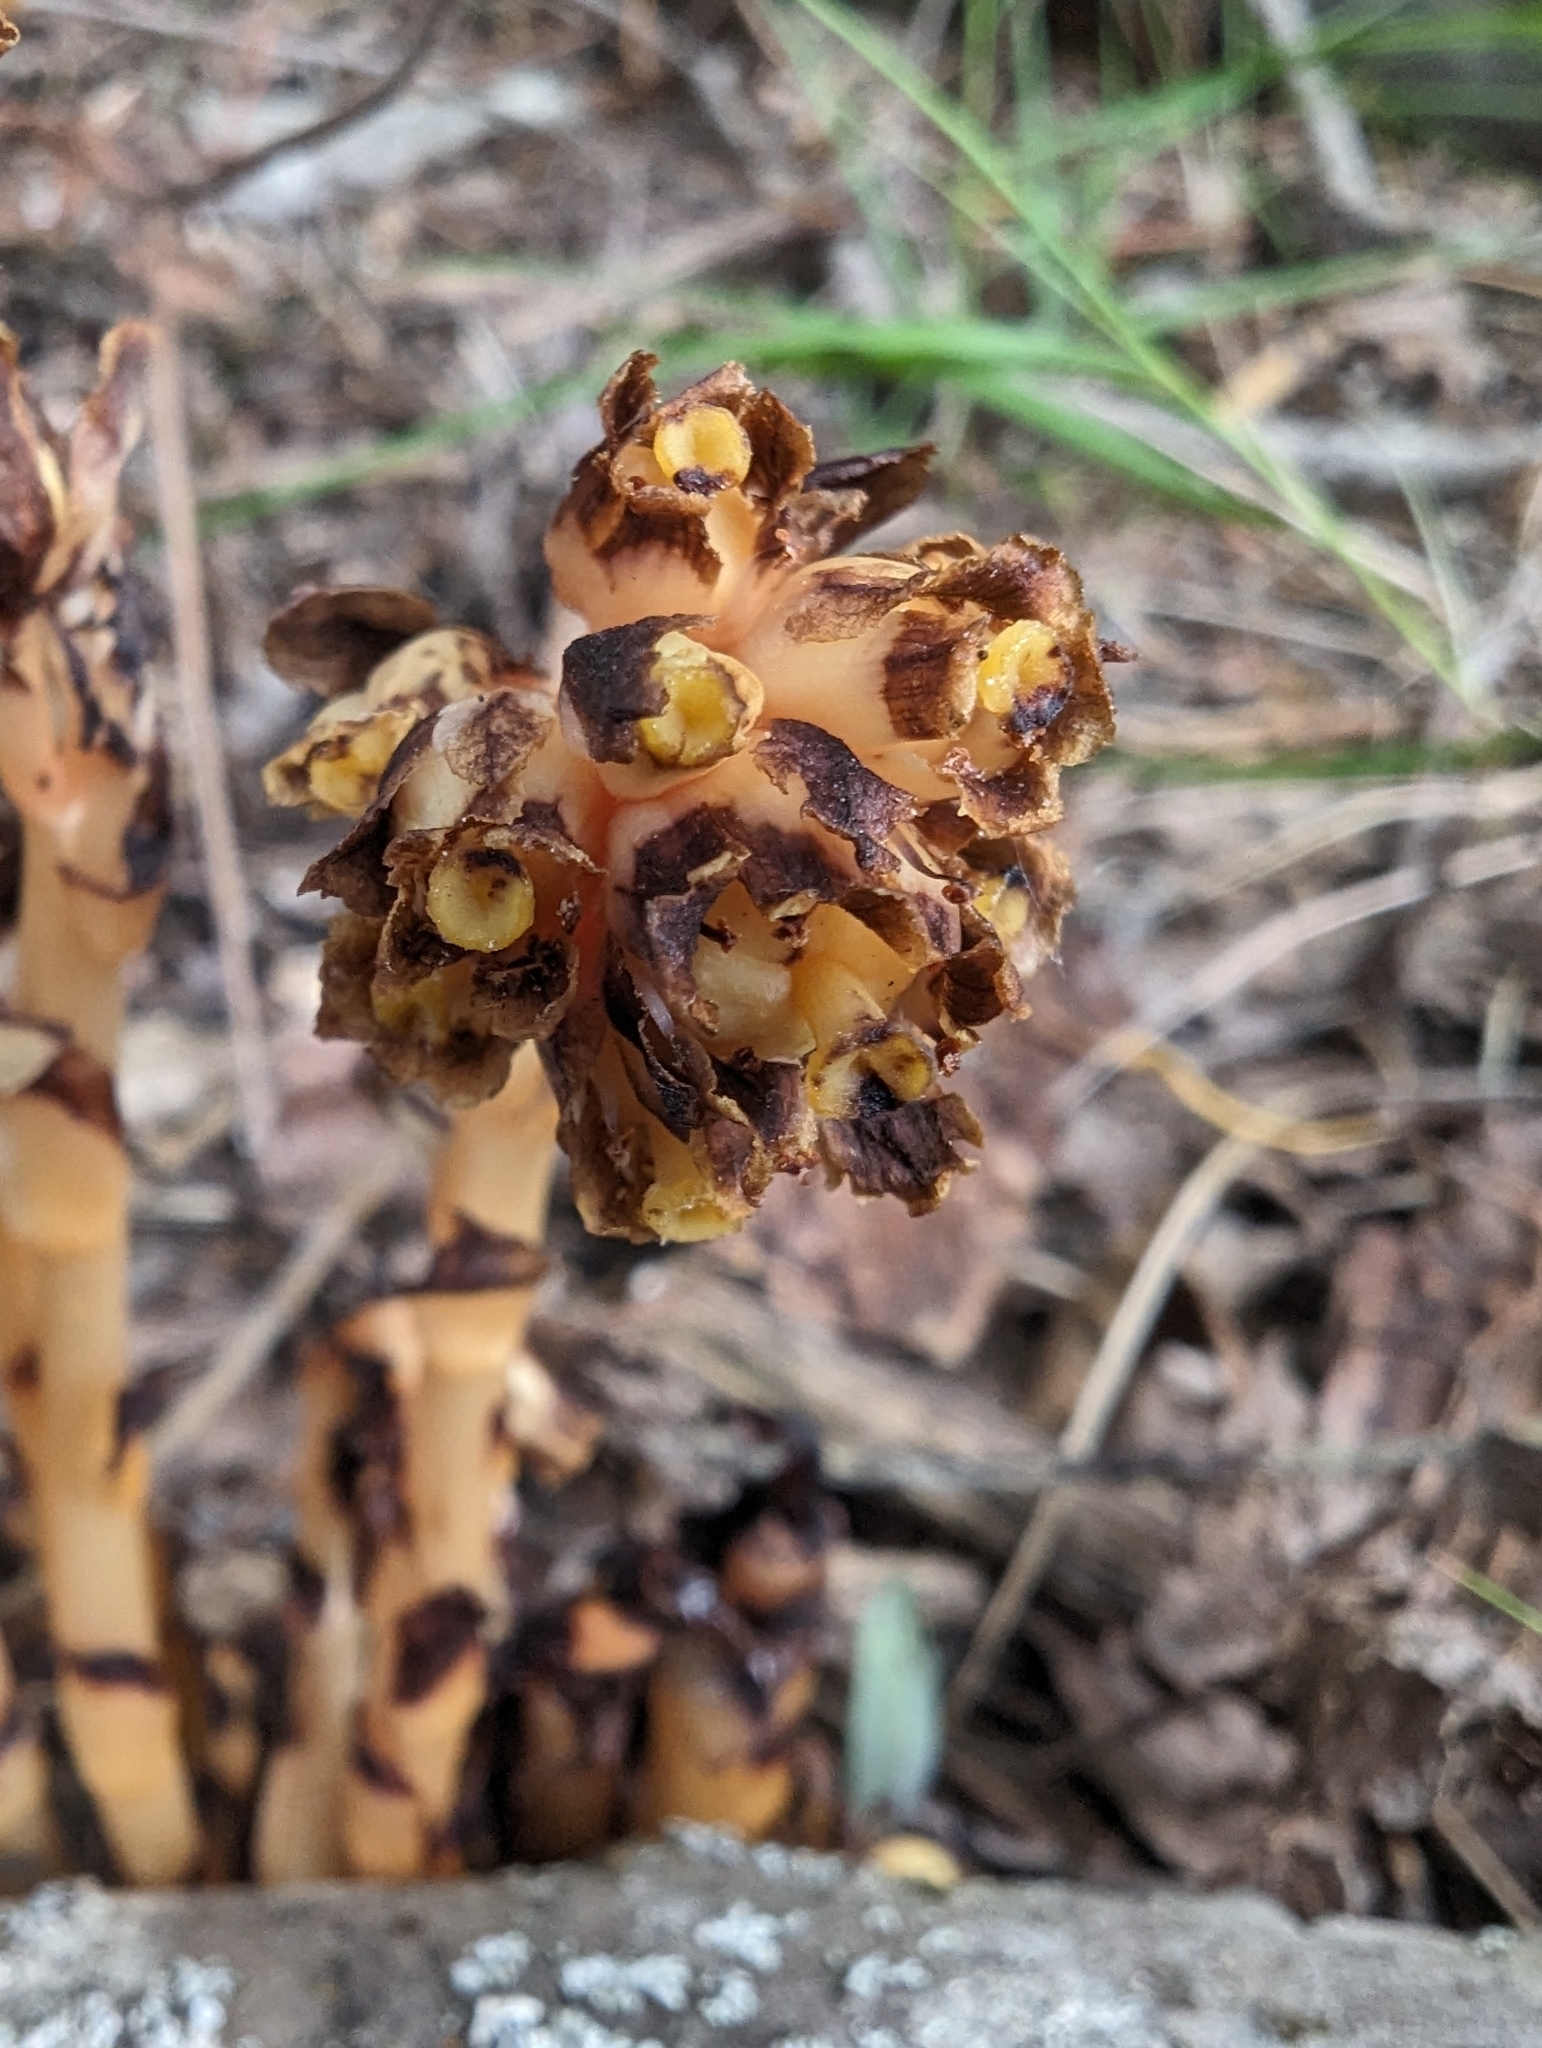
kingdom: Plantae
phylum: Tracheophyta
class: Magnoliopsida
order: Ericales
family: Ericaceae
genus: Hypopitys
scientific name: Hypopitys monotropa
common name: Yellow bird's-nest
